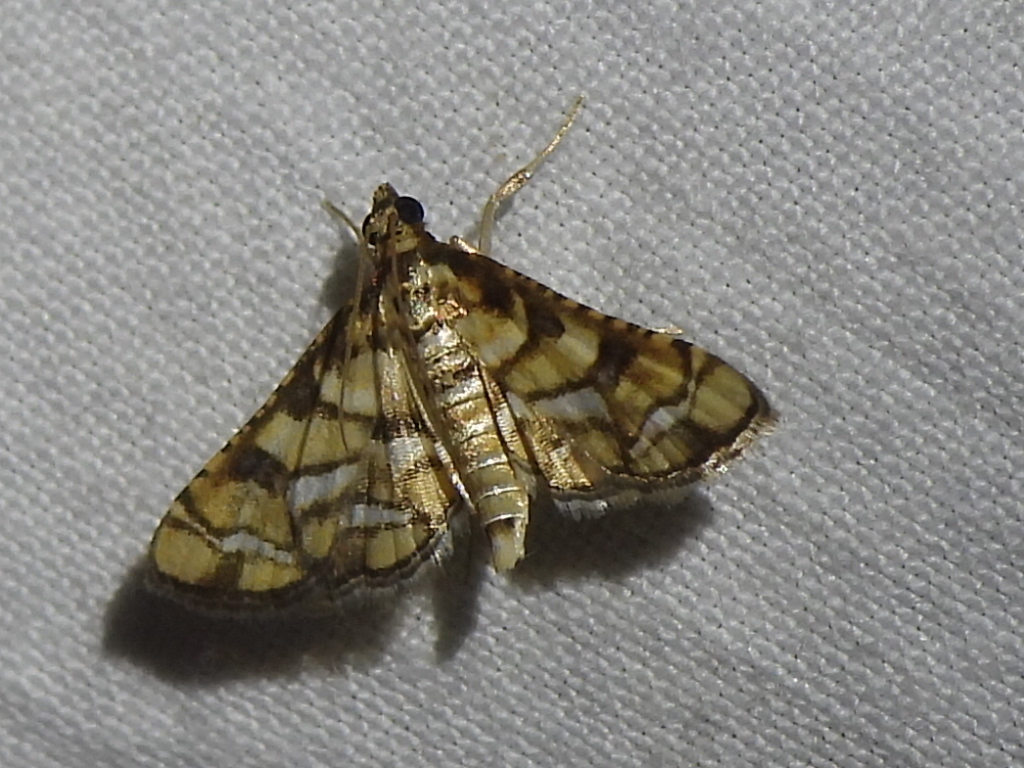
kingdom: Animalia
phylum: Arthropoda
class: Insecta
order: Lepidoptera
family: Crambidae
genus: Hileithia
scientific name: Hileithia magualis
